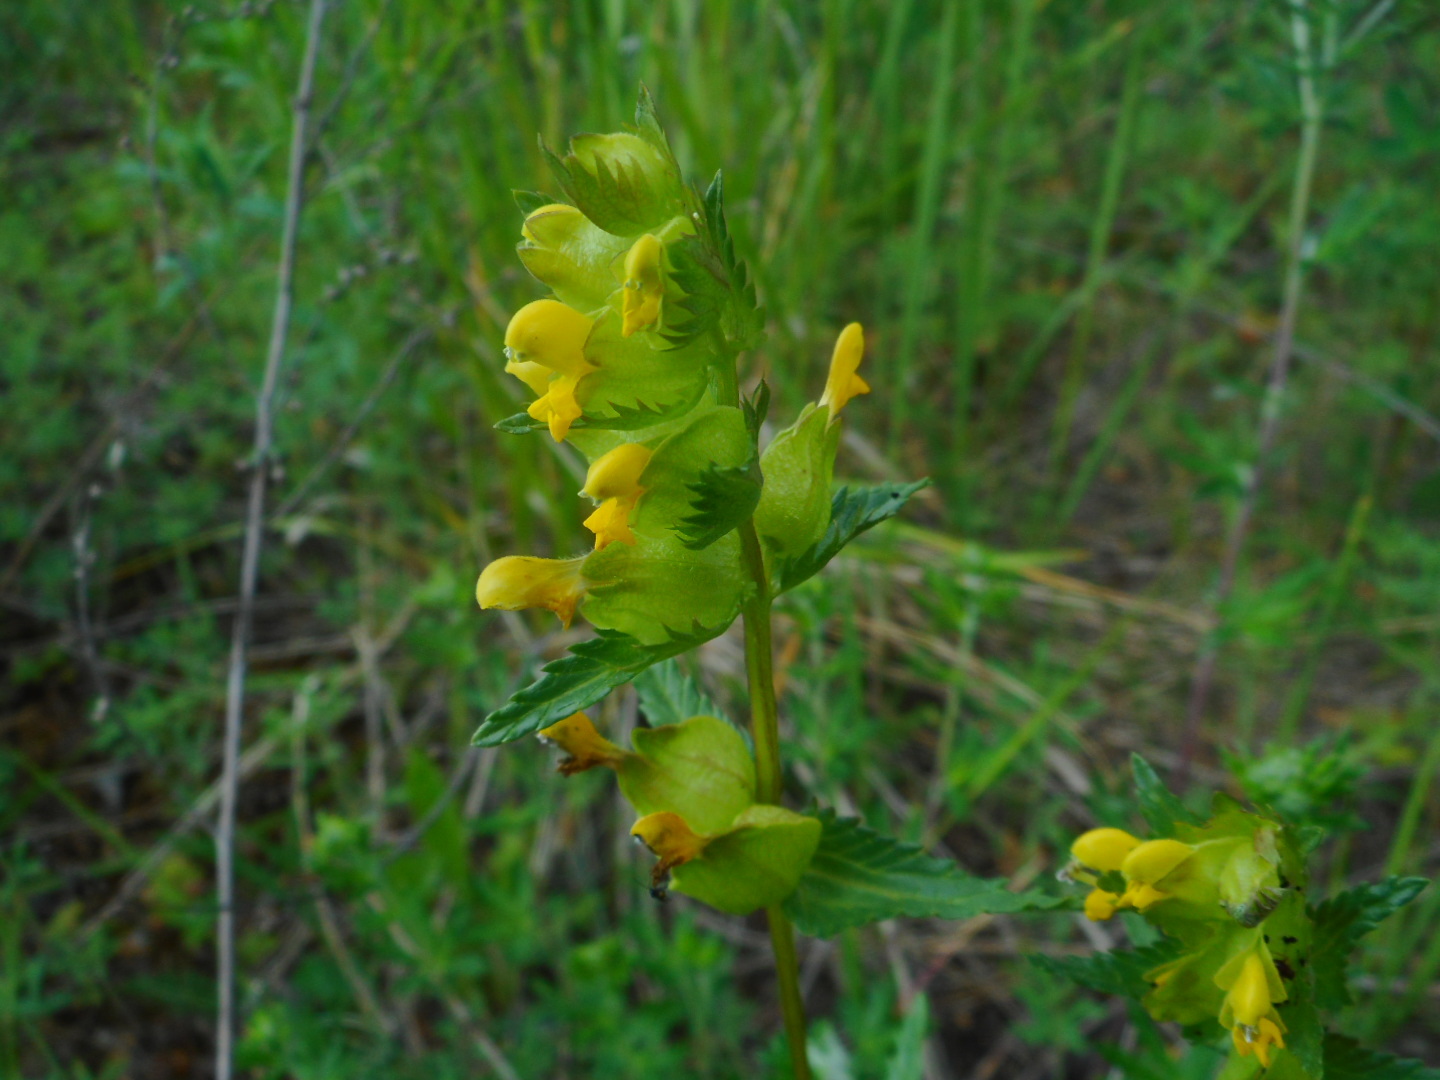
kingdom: Plantae
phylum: Tracheophyta
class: Magnoliopsida
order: Lamiales
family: Orobanchaceae
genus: Rhinanthus
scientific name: Rhinanthus minor
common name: Yellow-rattle
